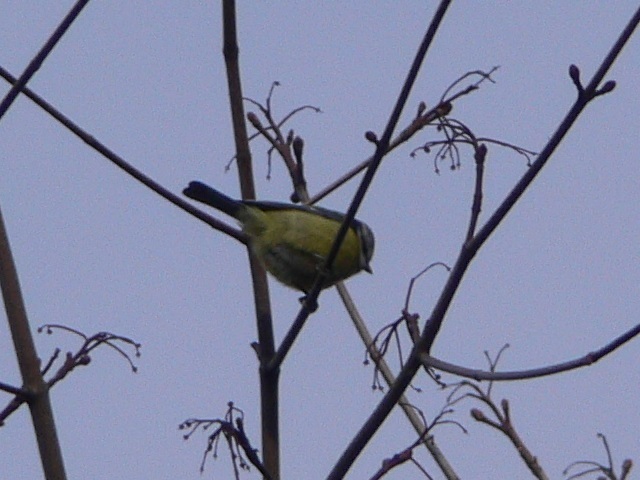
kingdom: Animalia
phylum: Chordata
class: Aves
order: Passeriformes
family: Paridae
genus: Cyanistes
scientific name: Cyanistes caeruleus
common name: Eurasian blue tit
